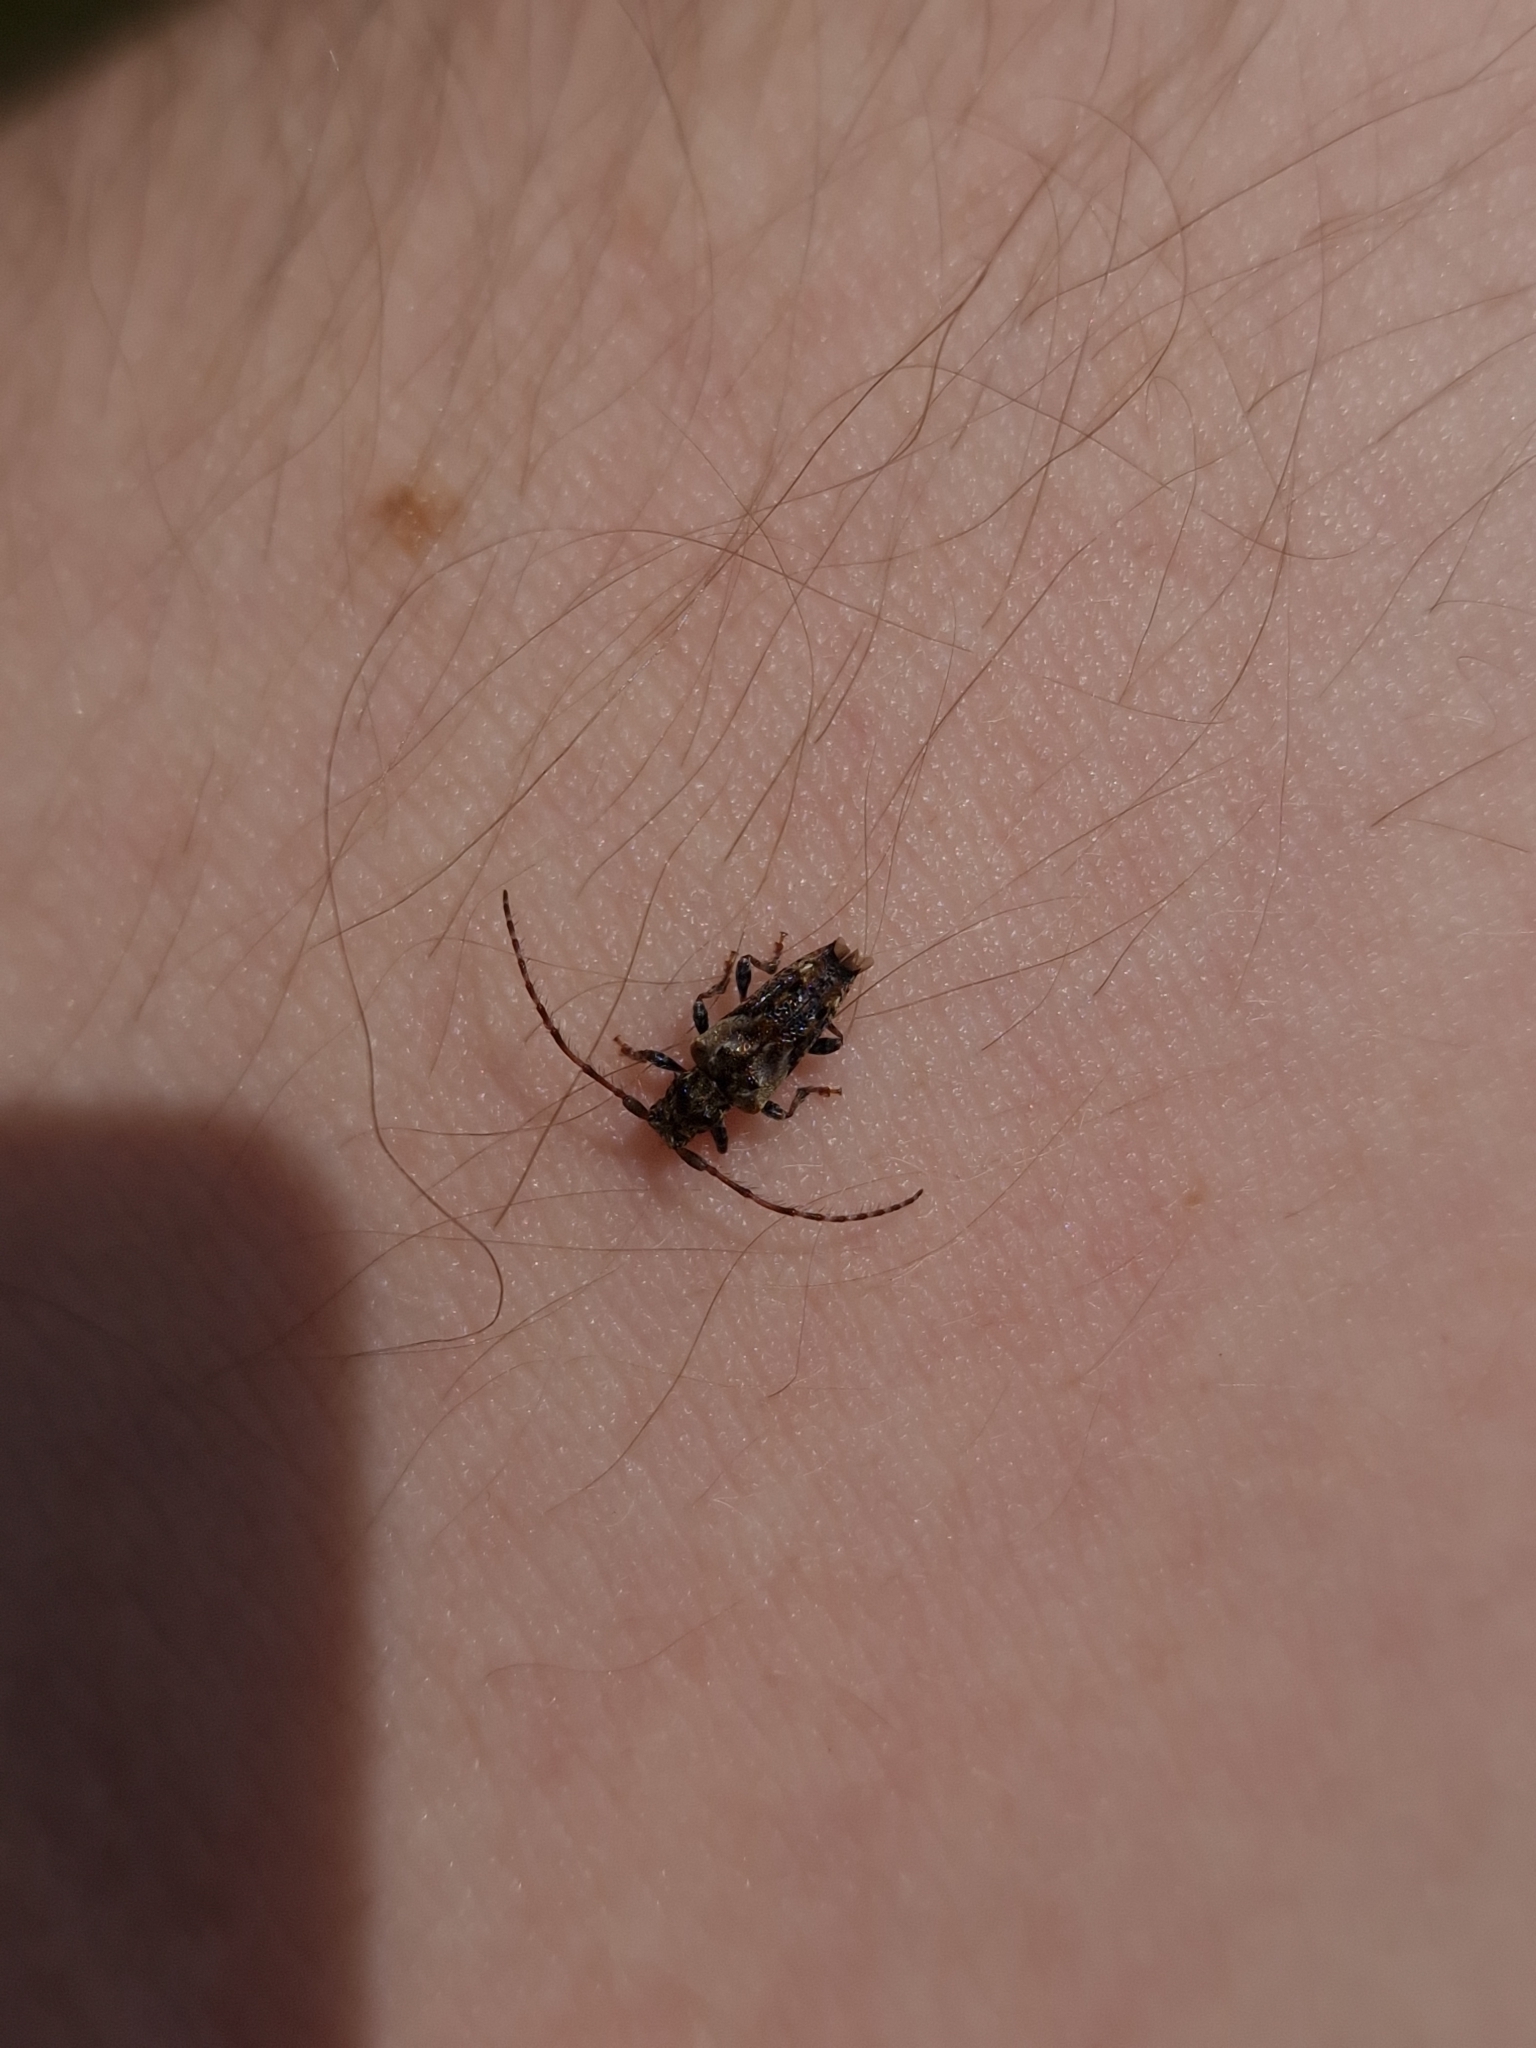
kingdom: Animalia
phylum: Arthropoda
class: Insecta
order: Coleoptera
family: Cerambycidae
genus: Pogonocherus
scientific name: Pogonocherus hispidus
